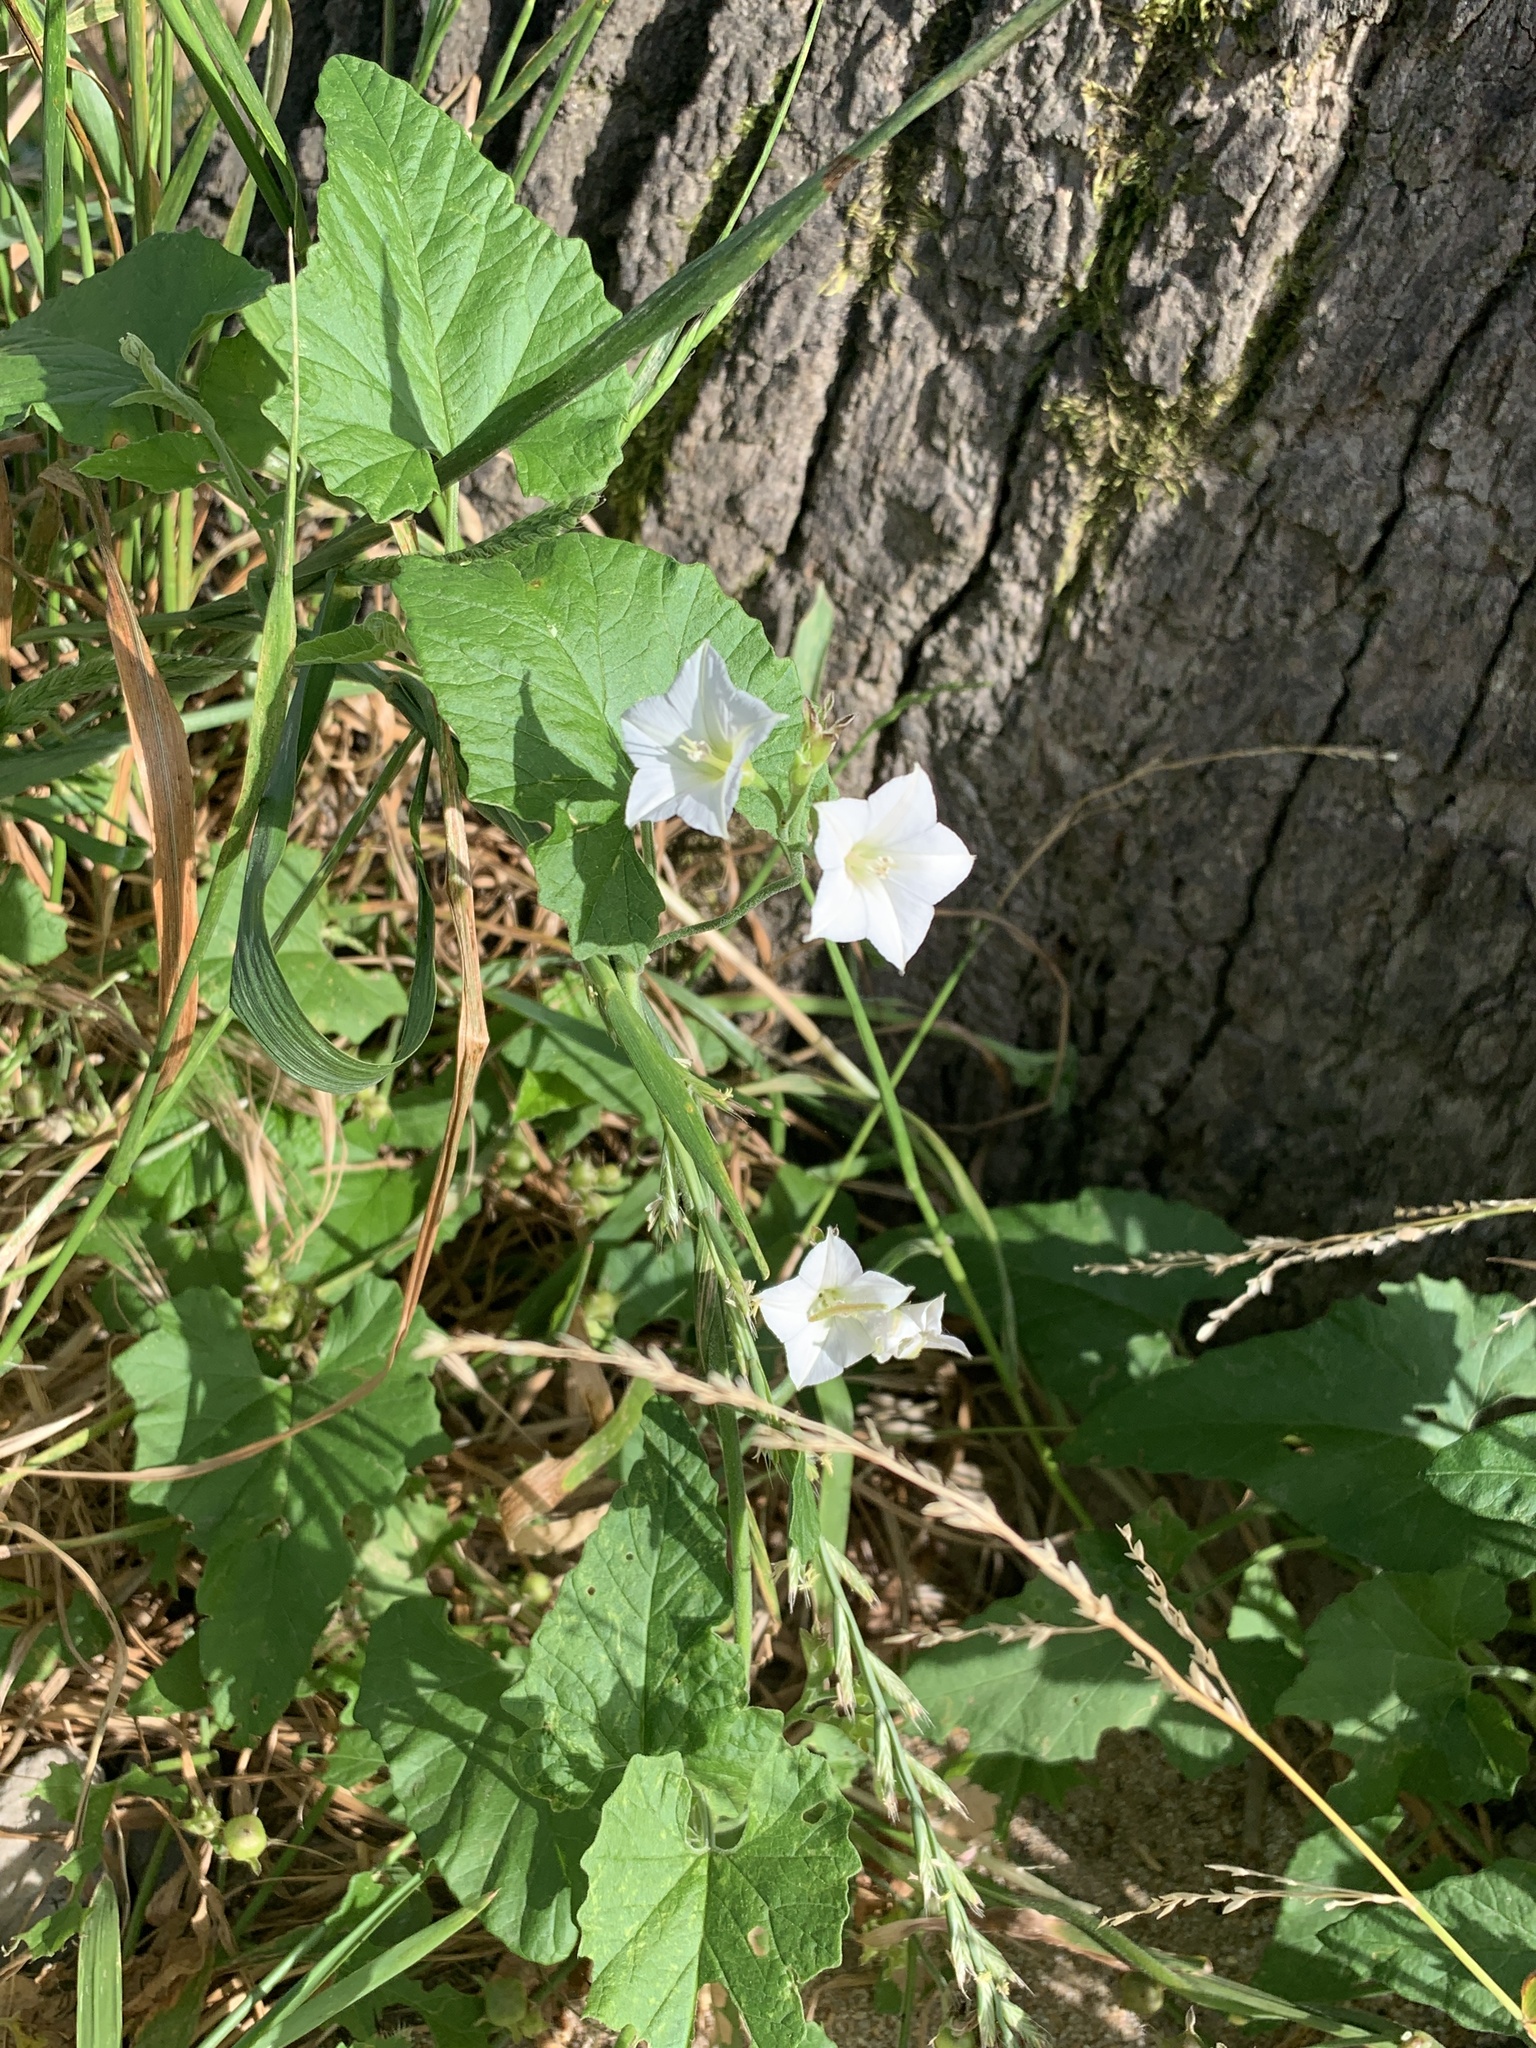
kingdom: Plantae
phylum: Tracheophyta
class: Magnoliopsida
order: Solanales
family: Convolvulaceae
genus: Convolvulus
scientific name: Convolvulus farinosus
